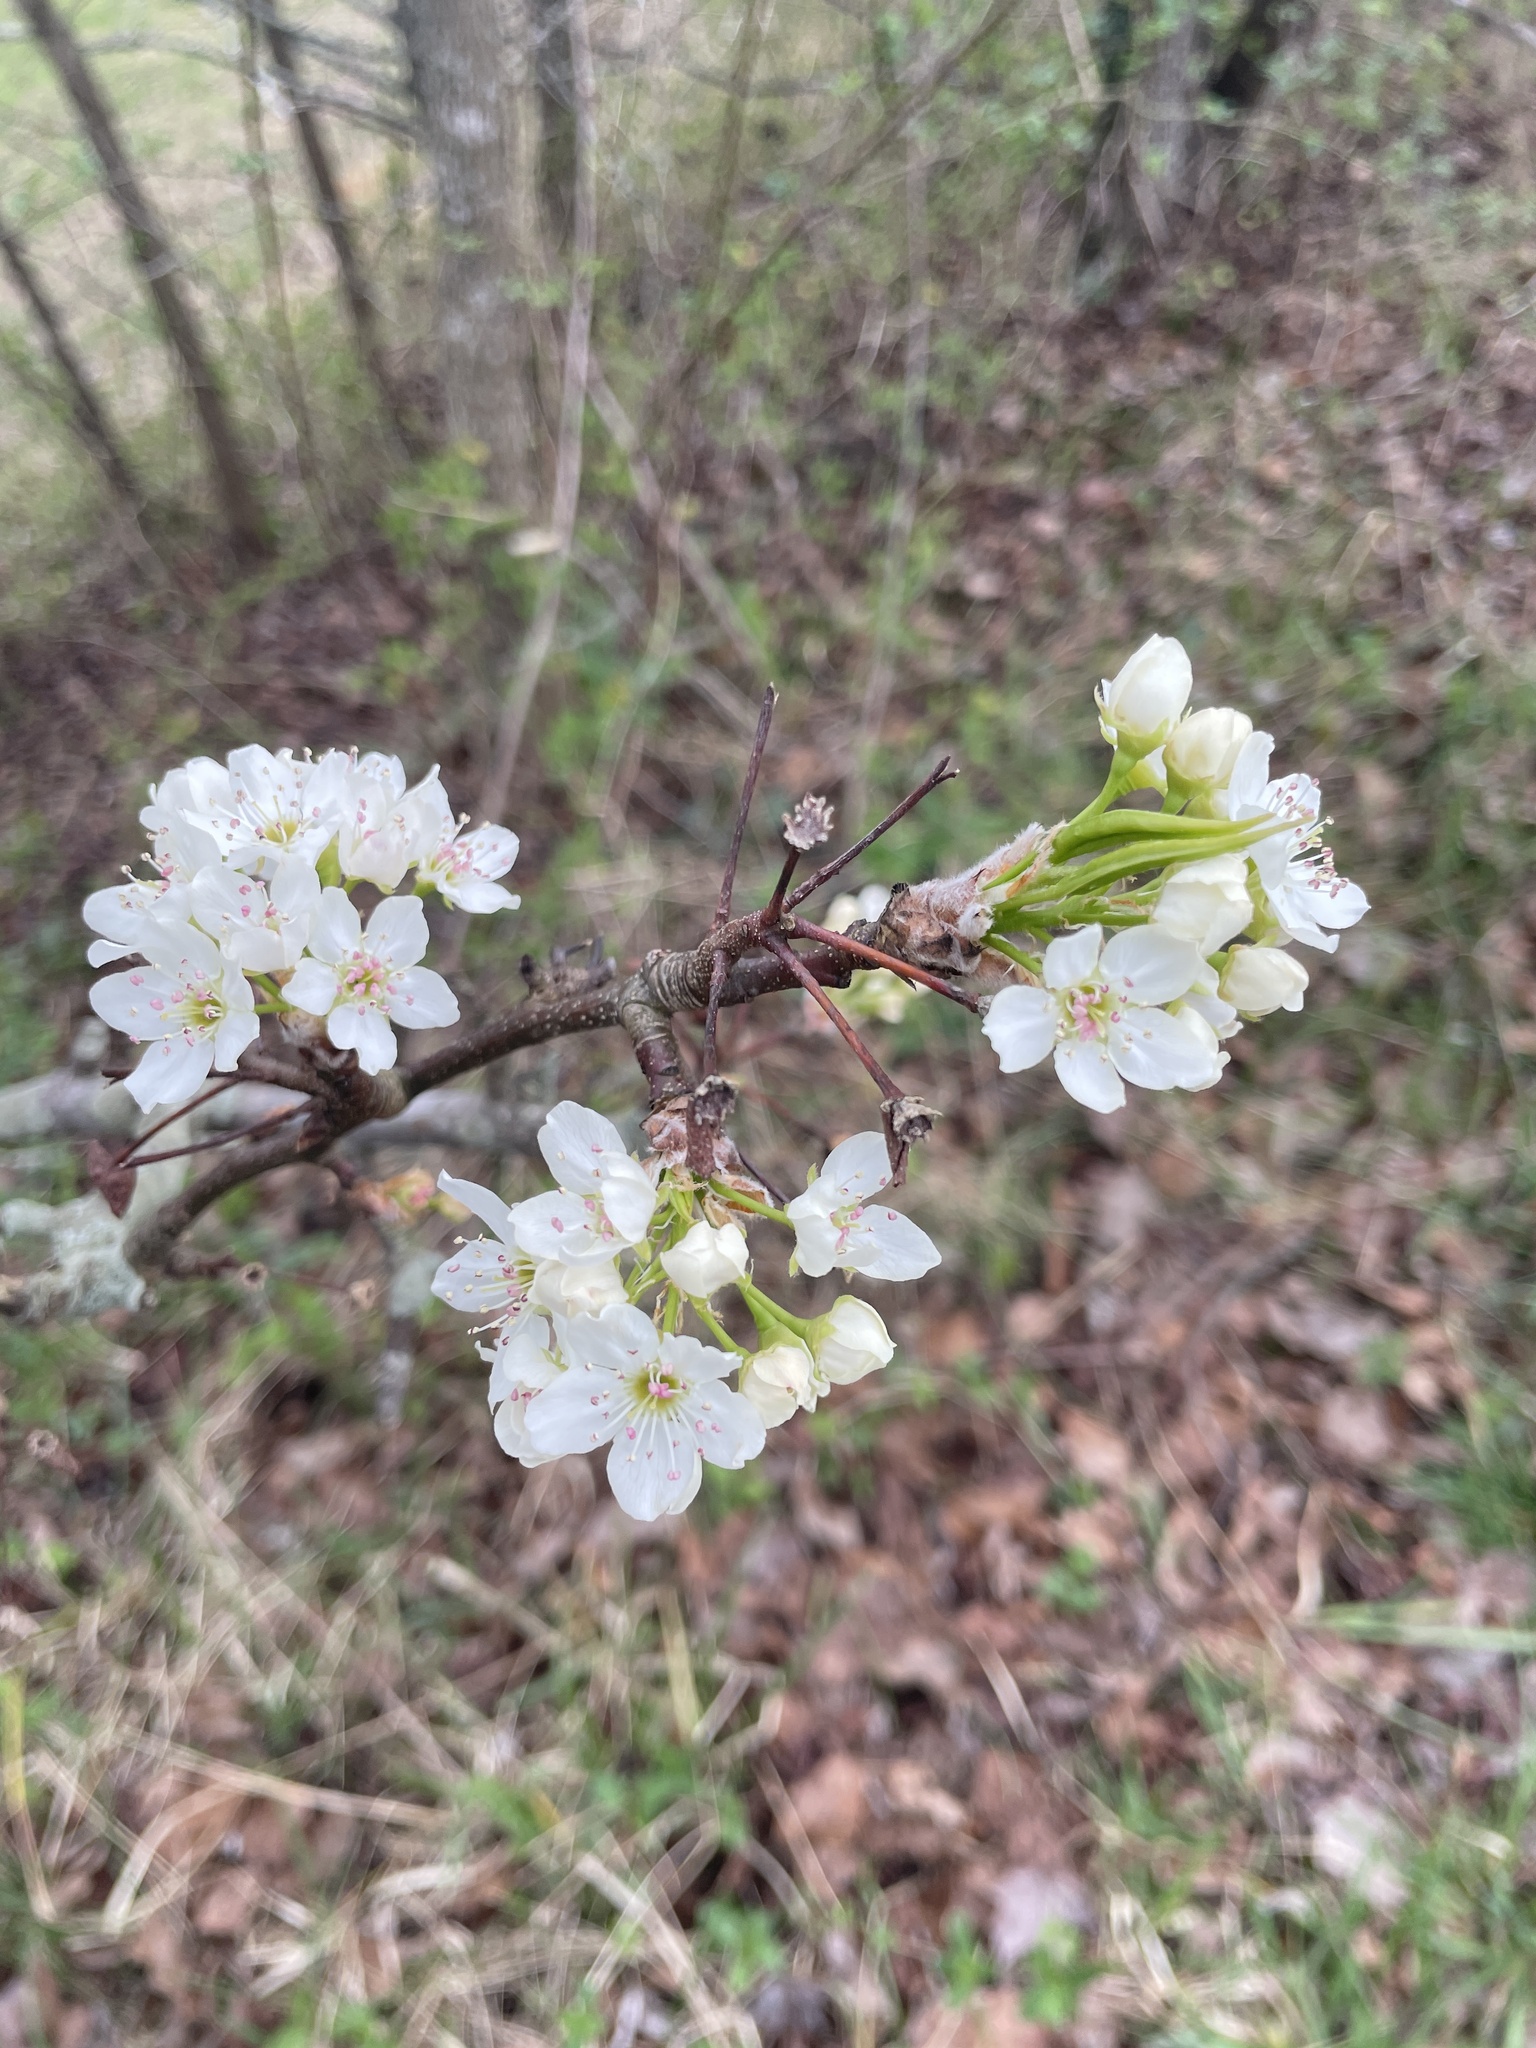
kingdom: Plantae
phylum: Tracheophyta
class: Magnoliopsida
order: Rosales
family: Rosaceae
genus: Pyrus
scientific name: Pyrus calleryana
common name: Callery pear
